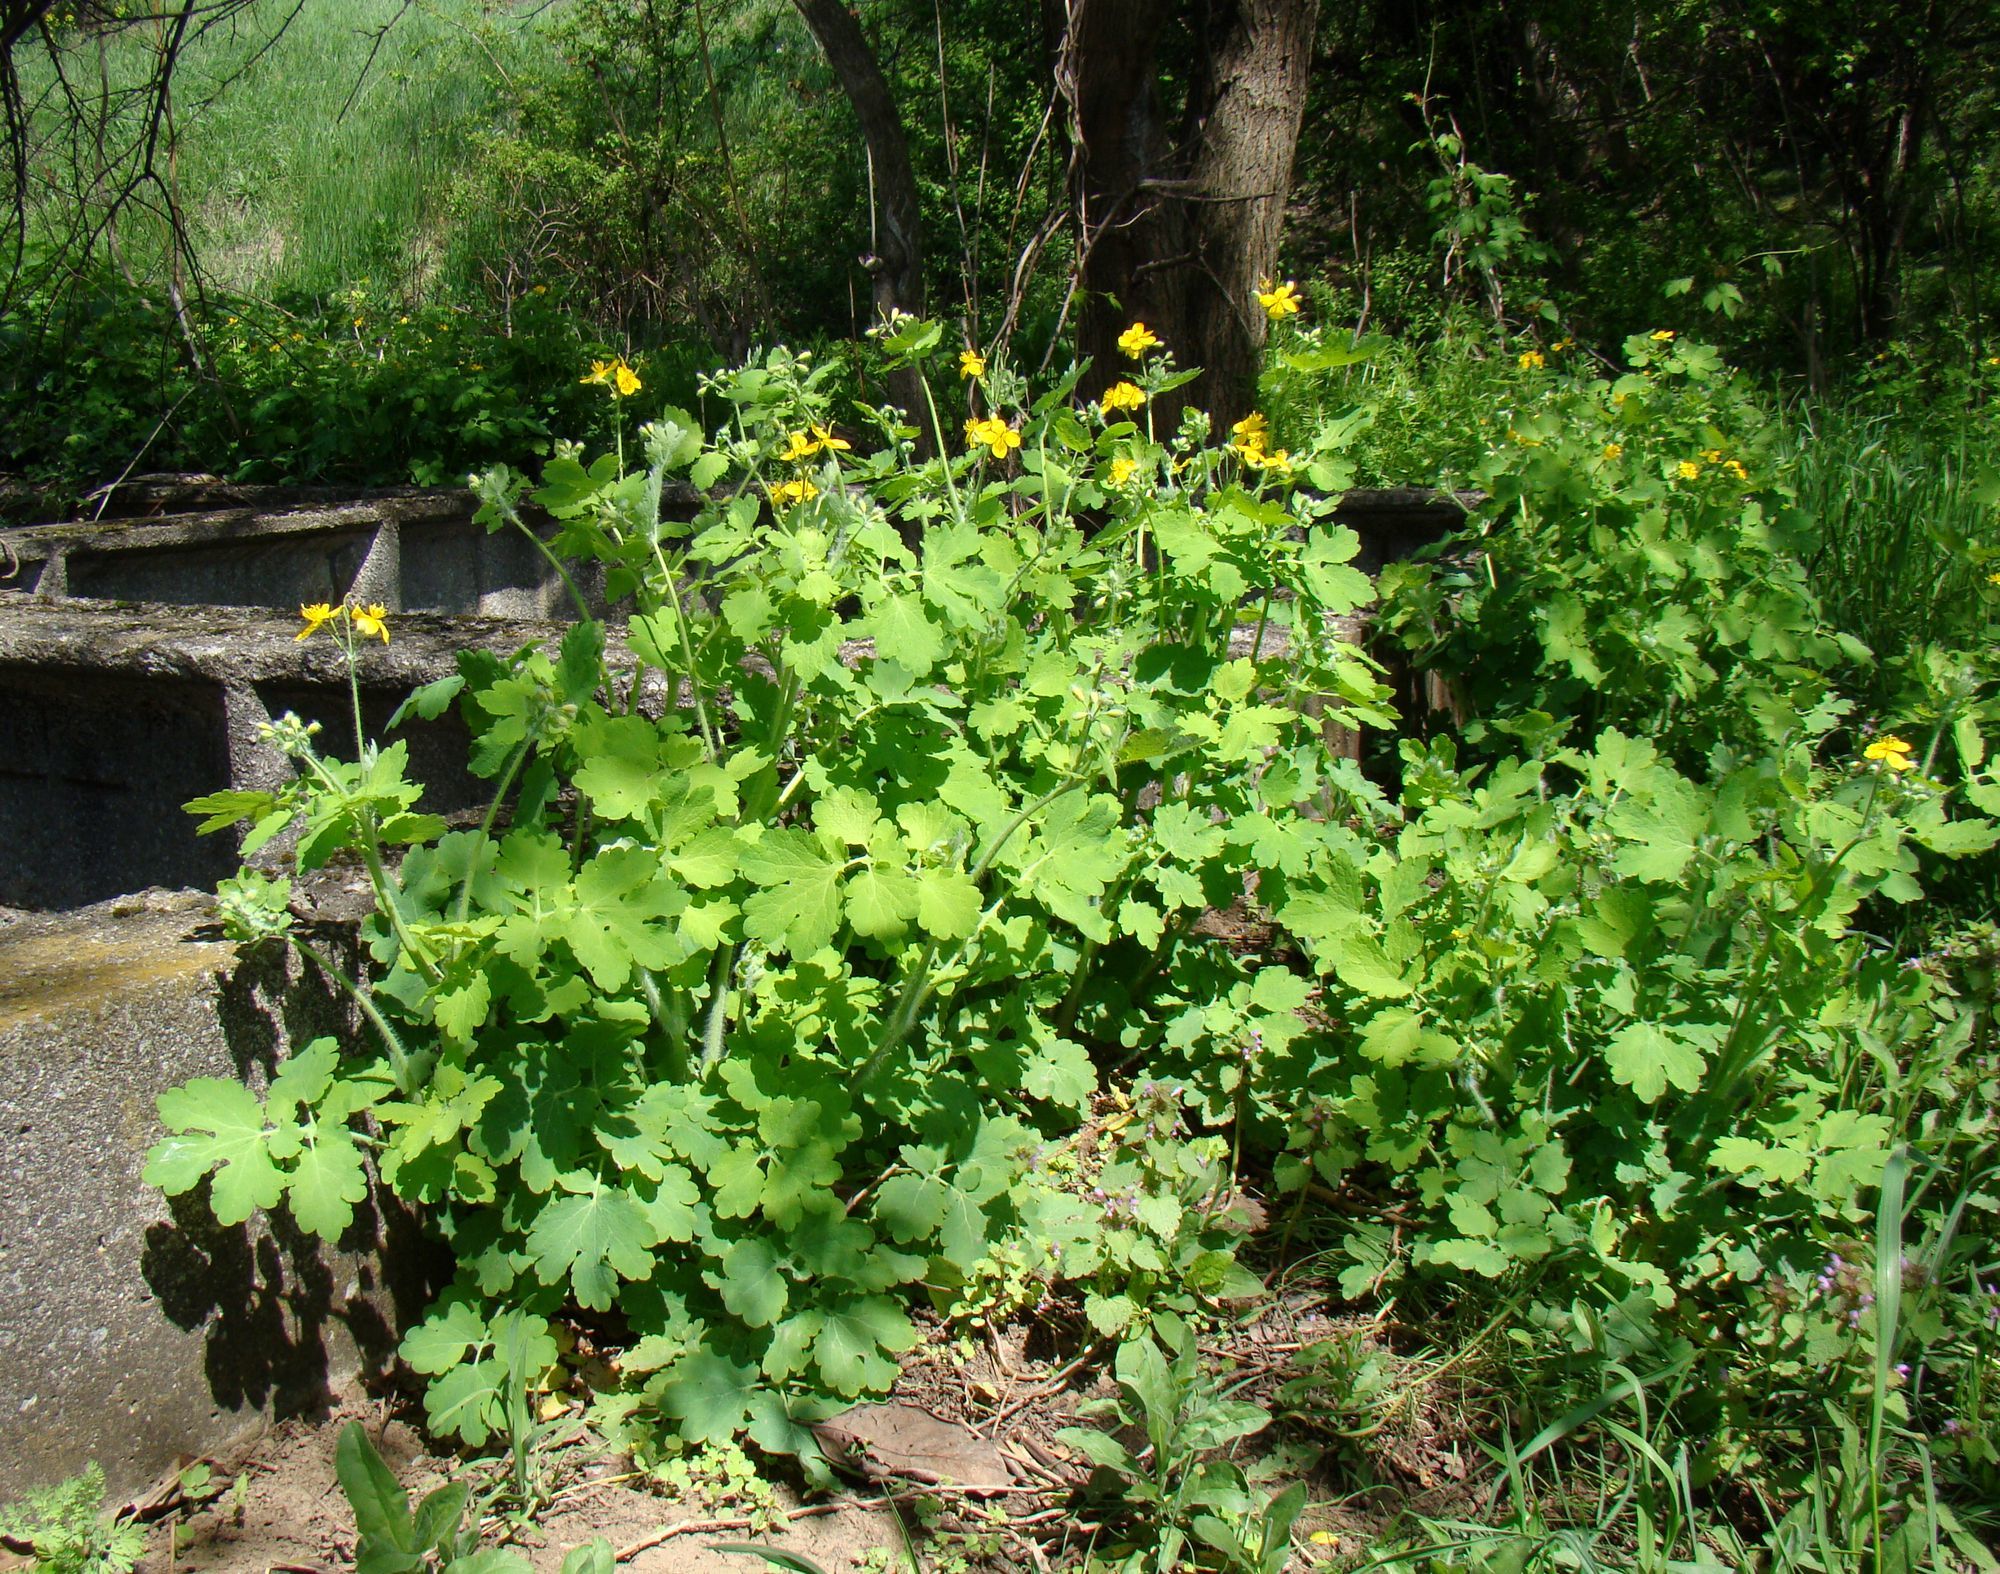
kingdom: Plantae
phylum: Tracheophyta
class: Magnoliopsida
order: Ranunculales
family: Papaveraceae
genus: Chelidonium
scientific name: Chelidonium majus
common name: Greater celandine
